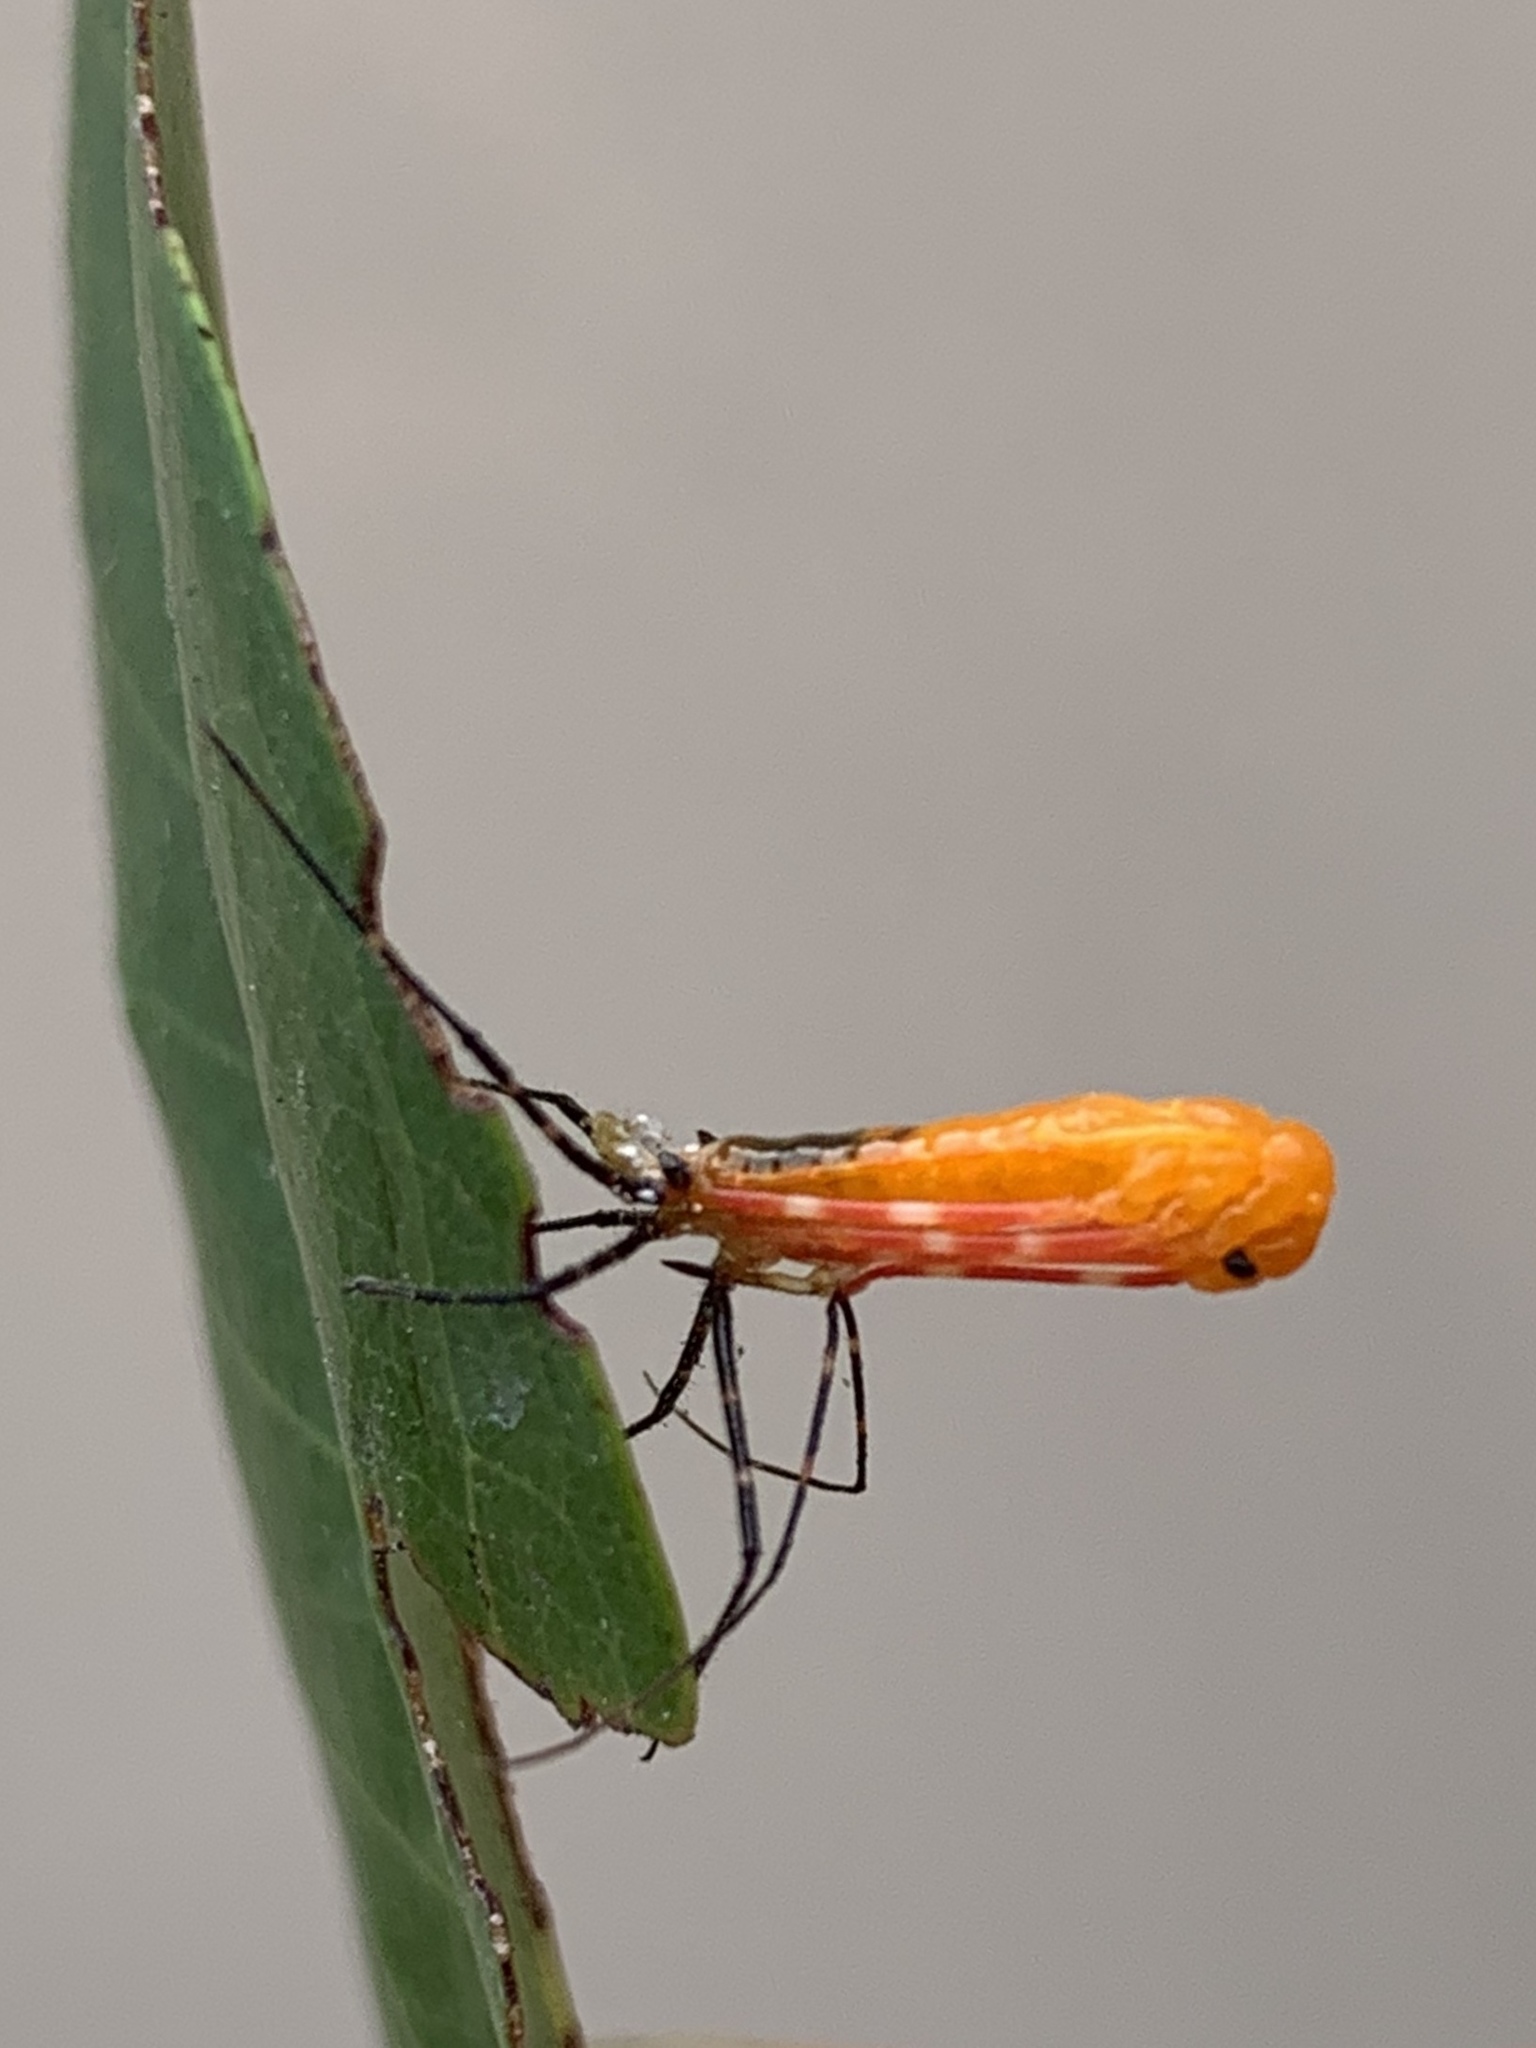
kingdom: Animalia
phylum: Arthropoda
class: Insecta
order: Hemiptera
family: Reduviidae
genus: Zelus
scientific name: Zelus longipes
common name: Milkweed assassin bug
